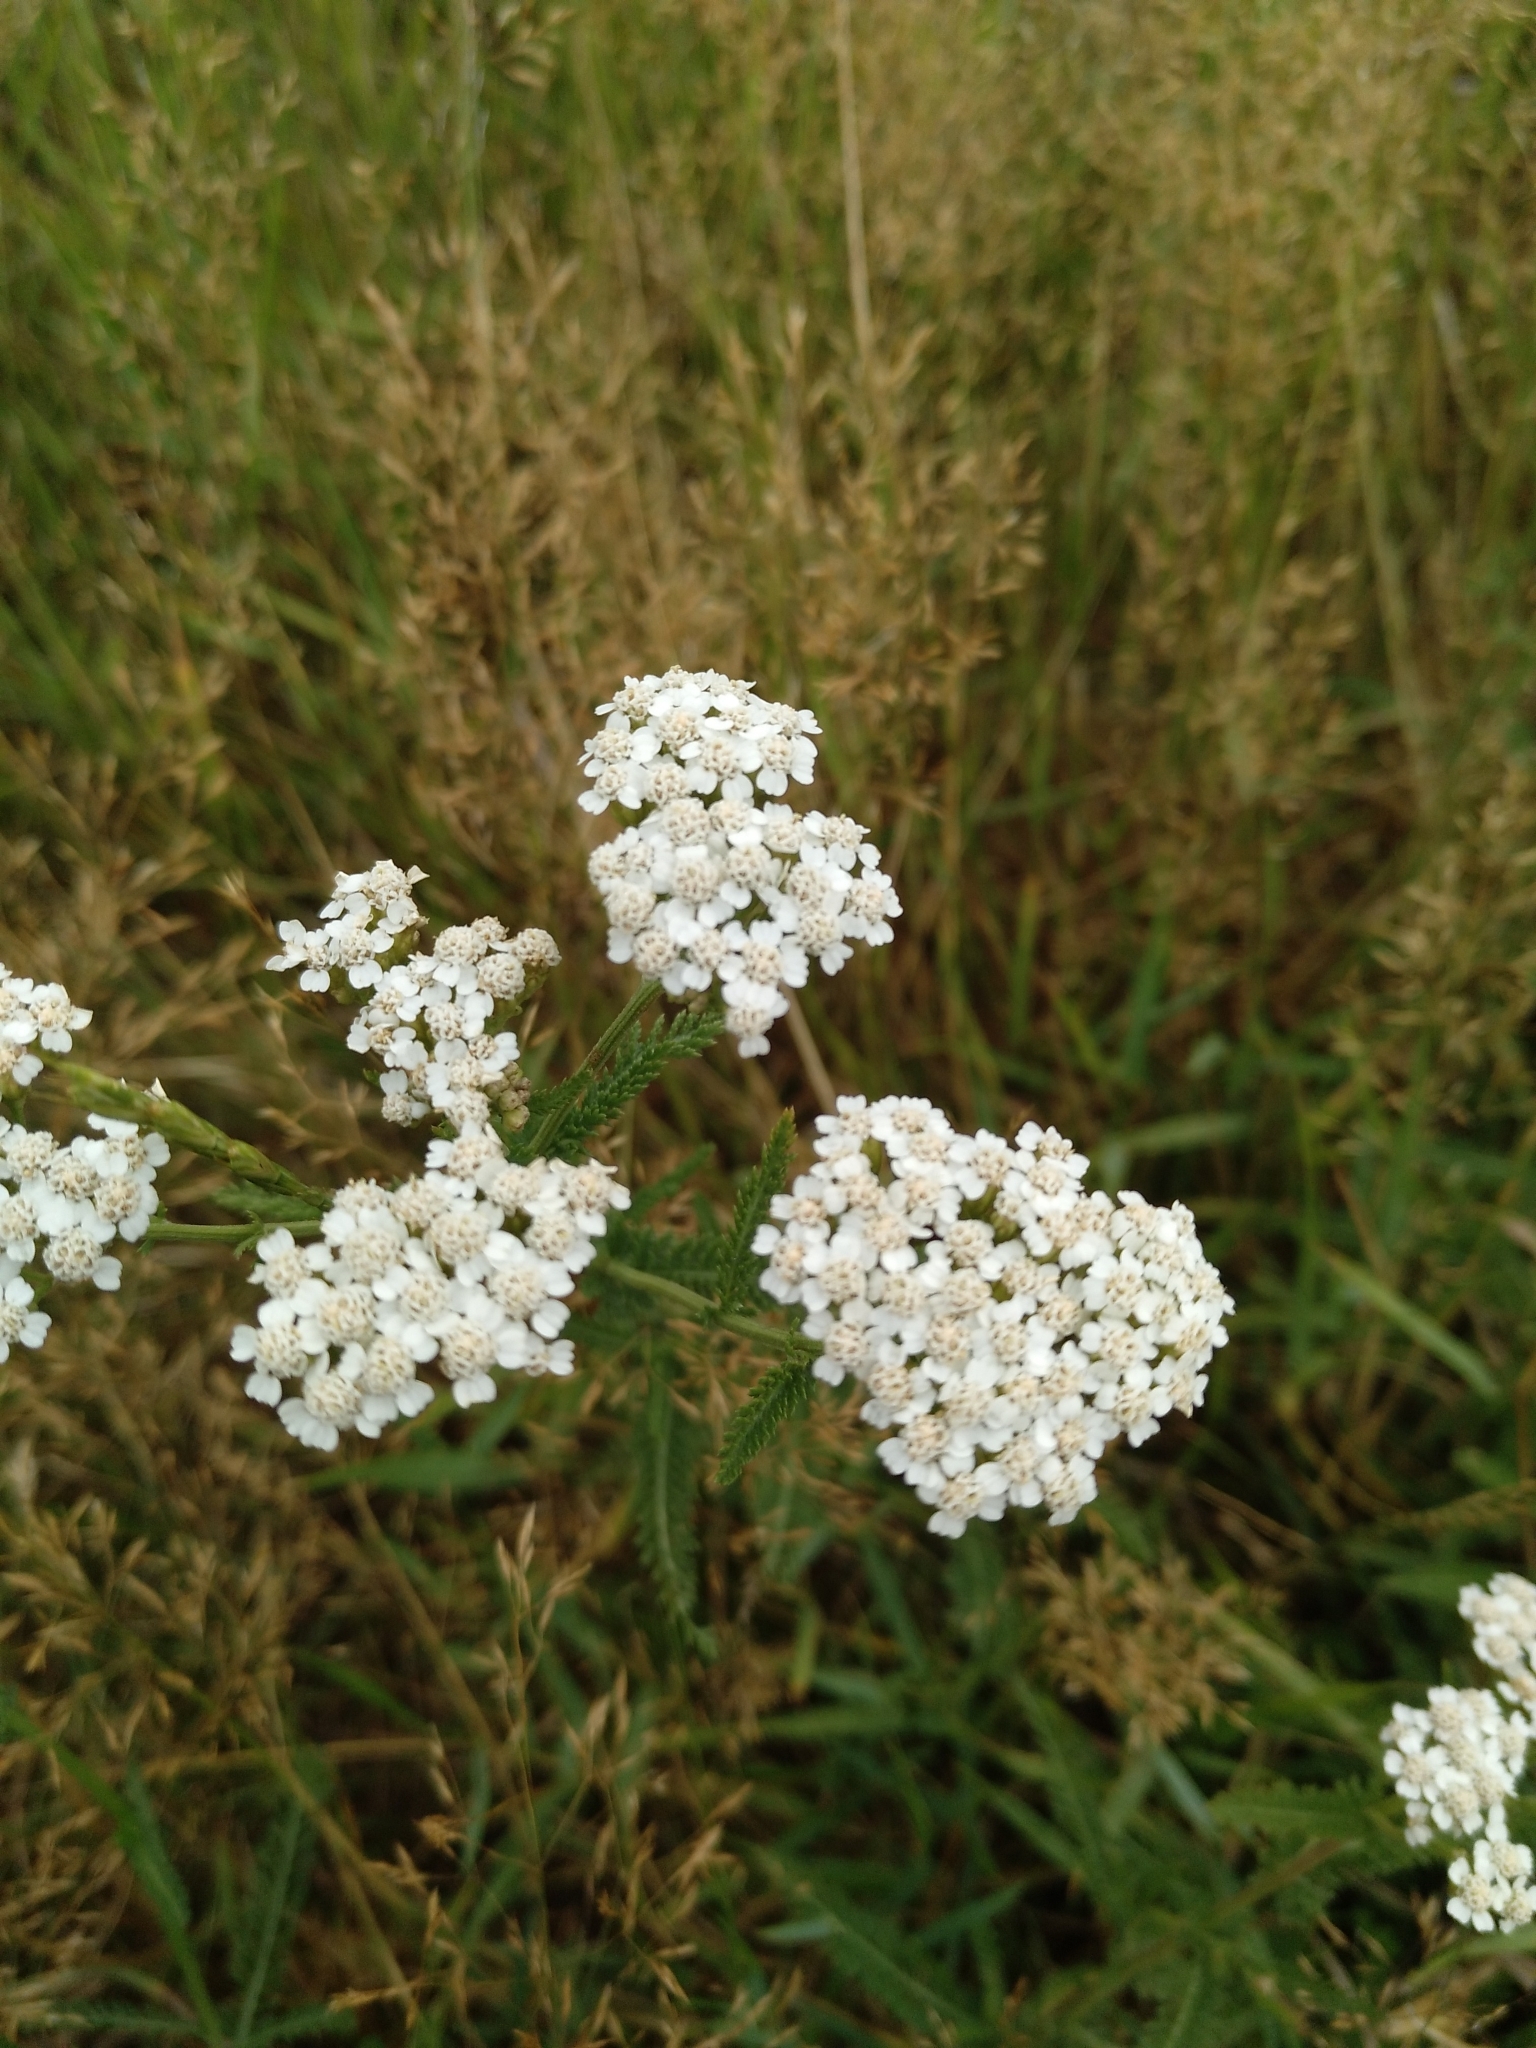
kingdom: Plantae
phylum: Tracheophyta
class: Magnoliopsida
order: Asterales
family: Asteraceae
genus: Achillea
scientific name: Achillea millefolium
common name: Yarrow
